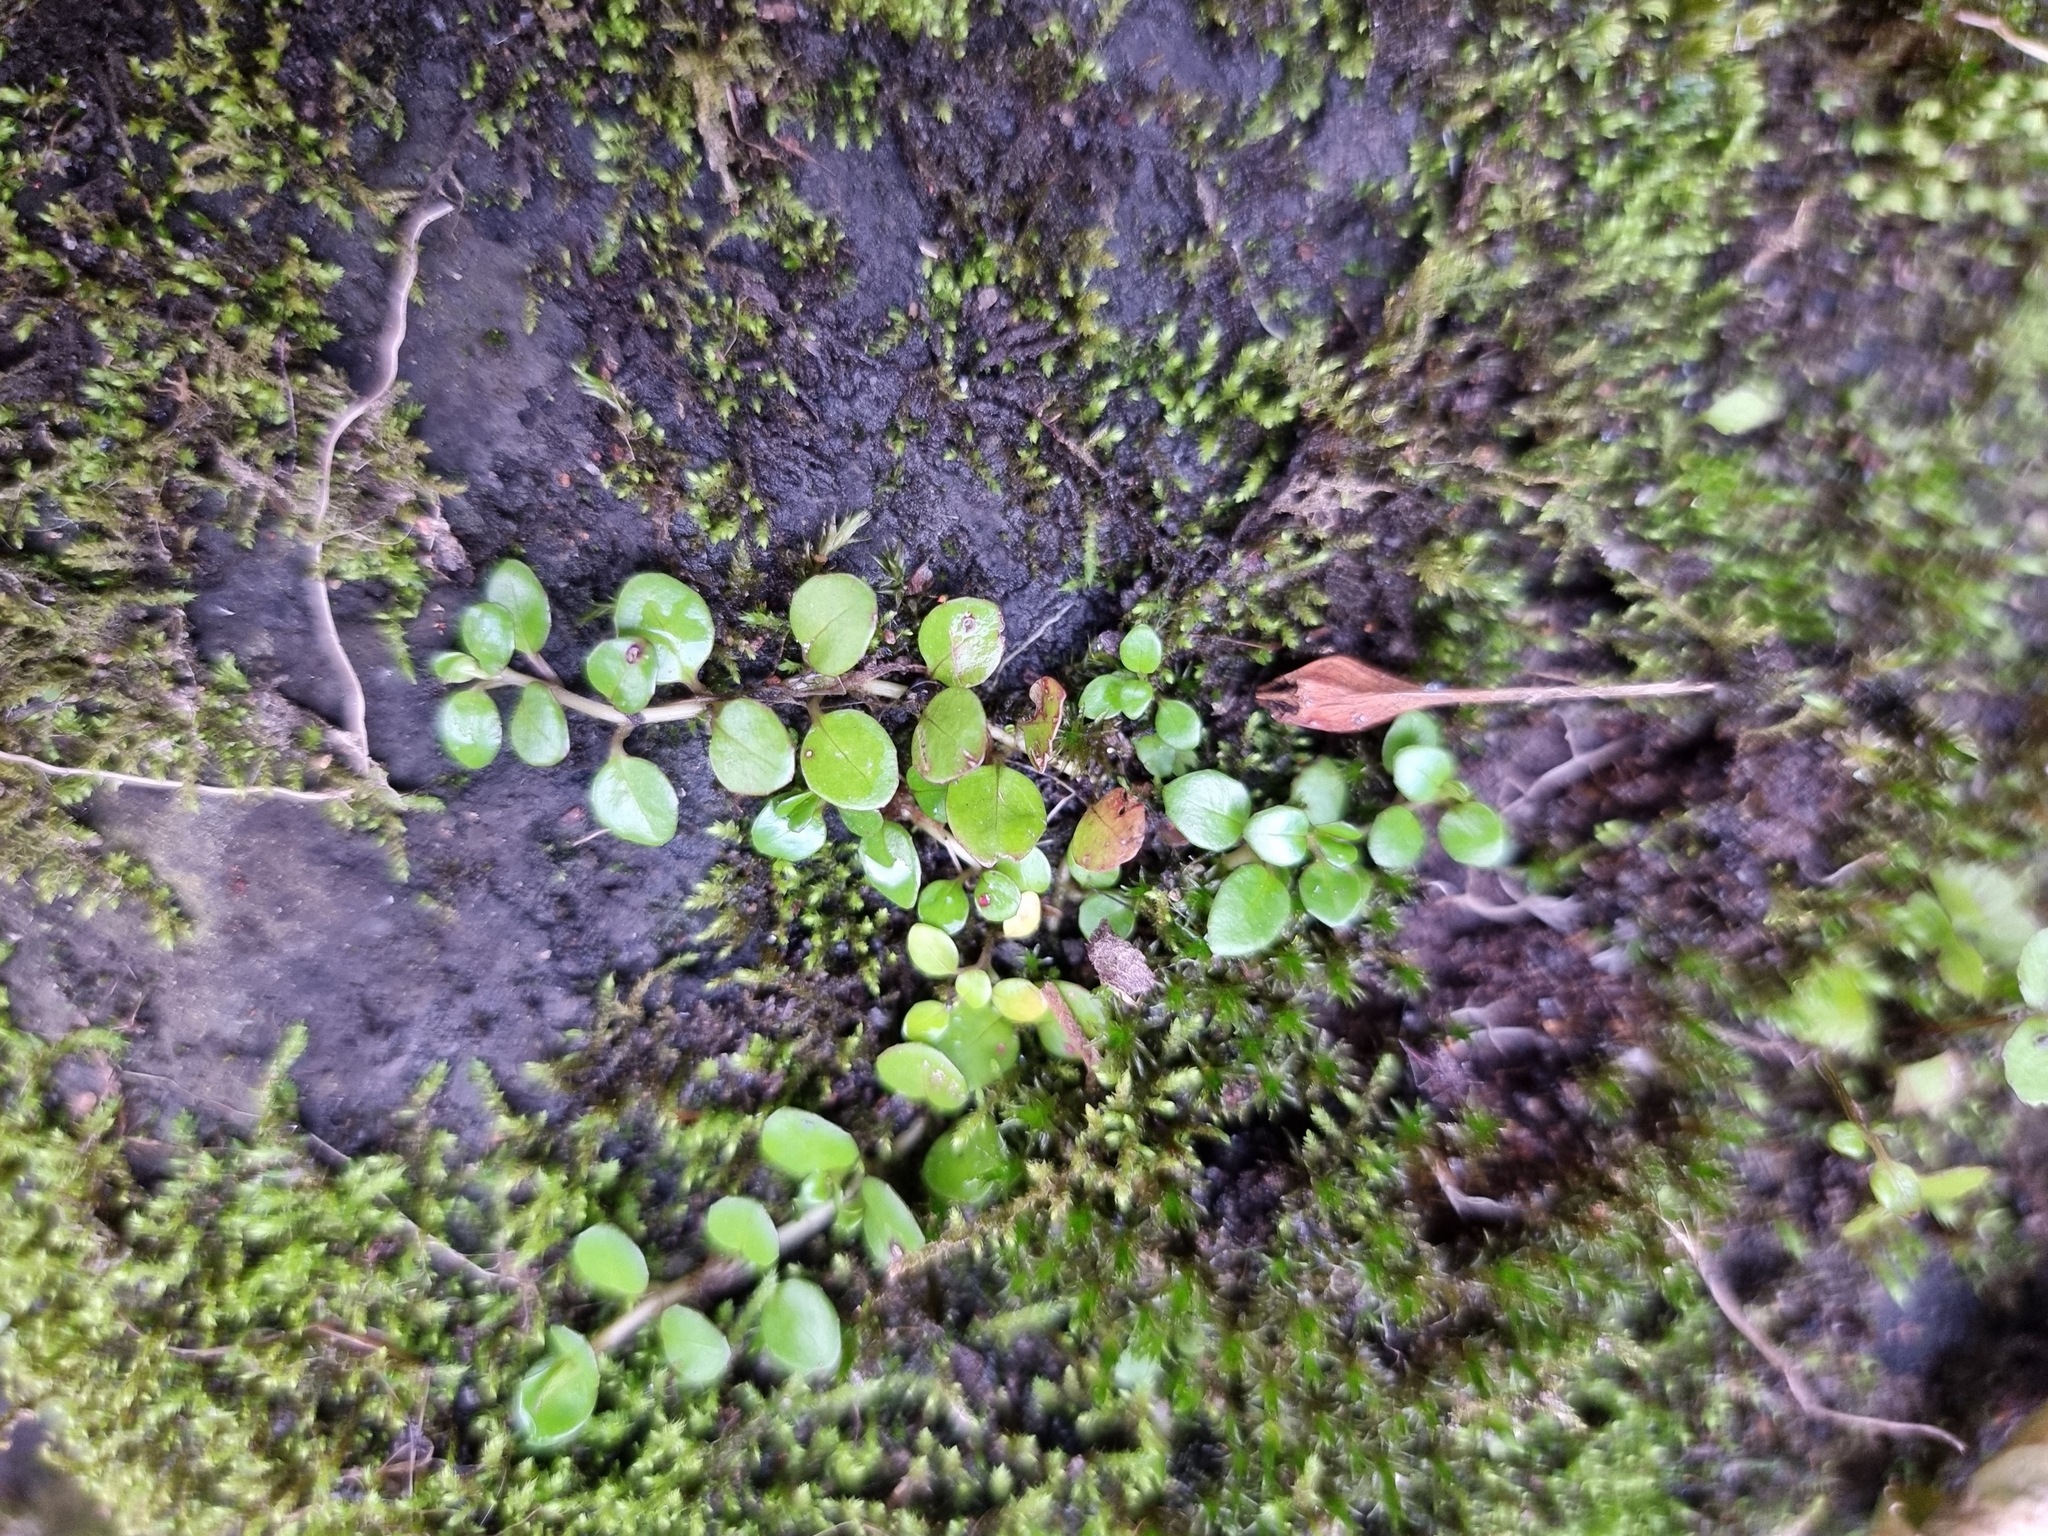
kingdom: Plantae
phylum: Tracheophyta
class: Magnoliopsida
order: Myrtales
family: Onagraceae
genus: Epilobium
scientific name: Epilobium brunnescens
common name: New zealand willowherb
